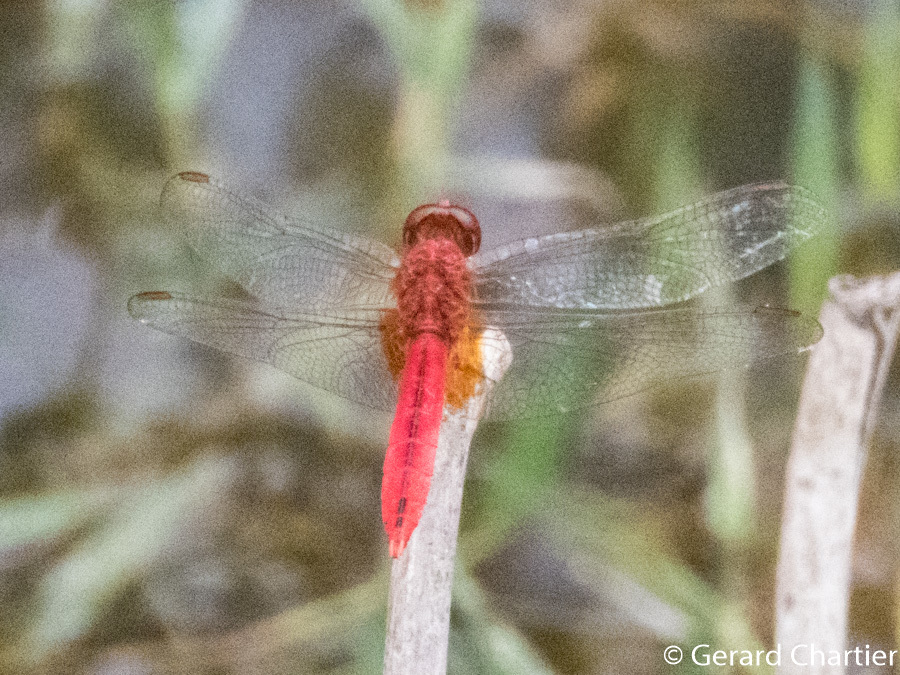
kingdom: Animalia
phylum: Arthropoda
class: Insecta
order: Odonata
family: Libellulidae
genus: Crocothemis
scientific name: Crocothemis servilia
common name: Scarlet skimmer
